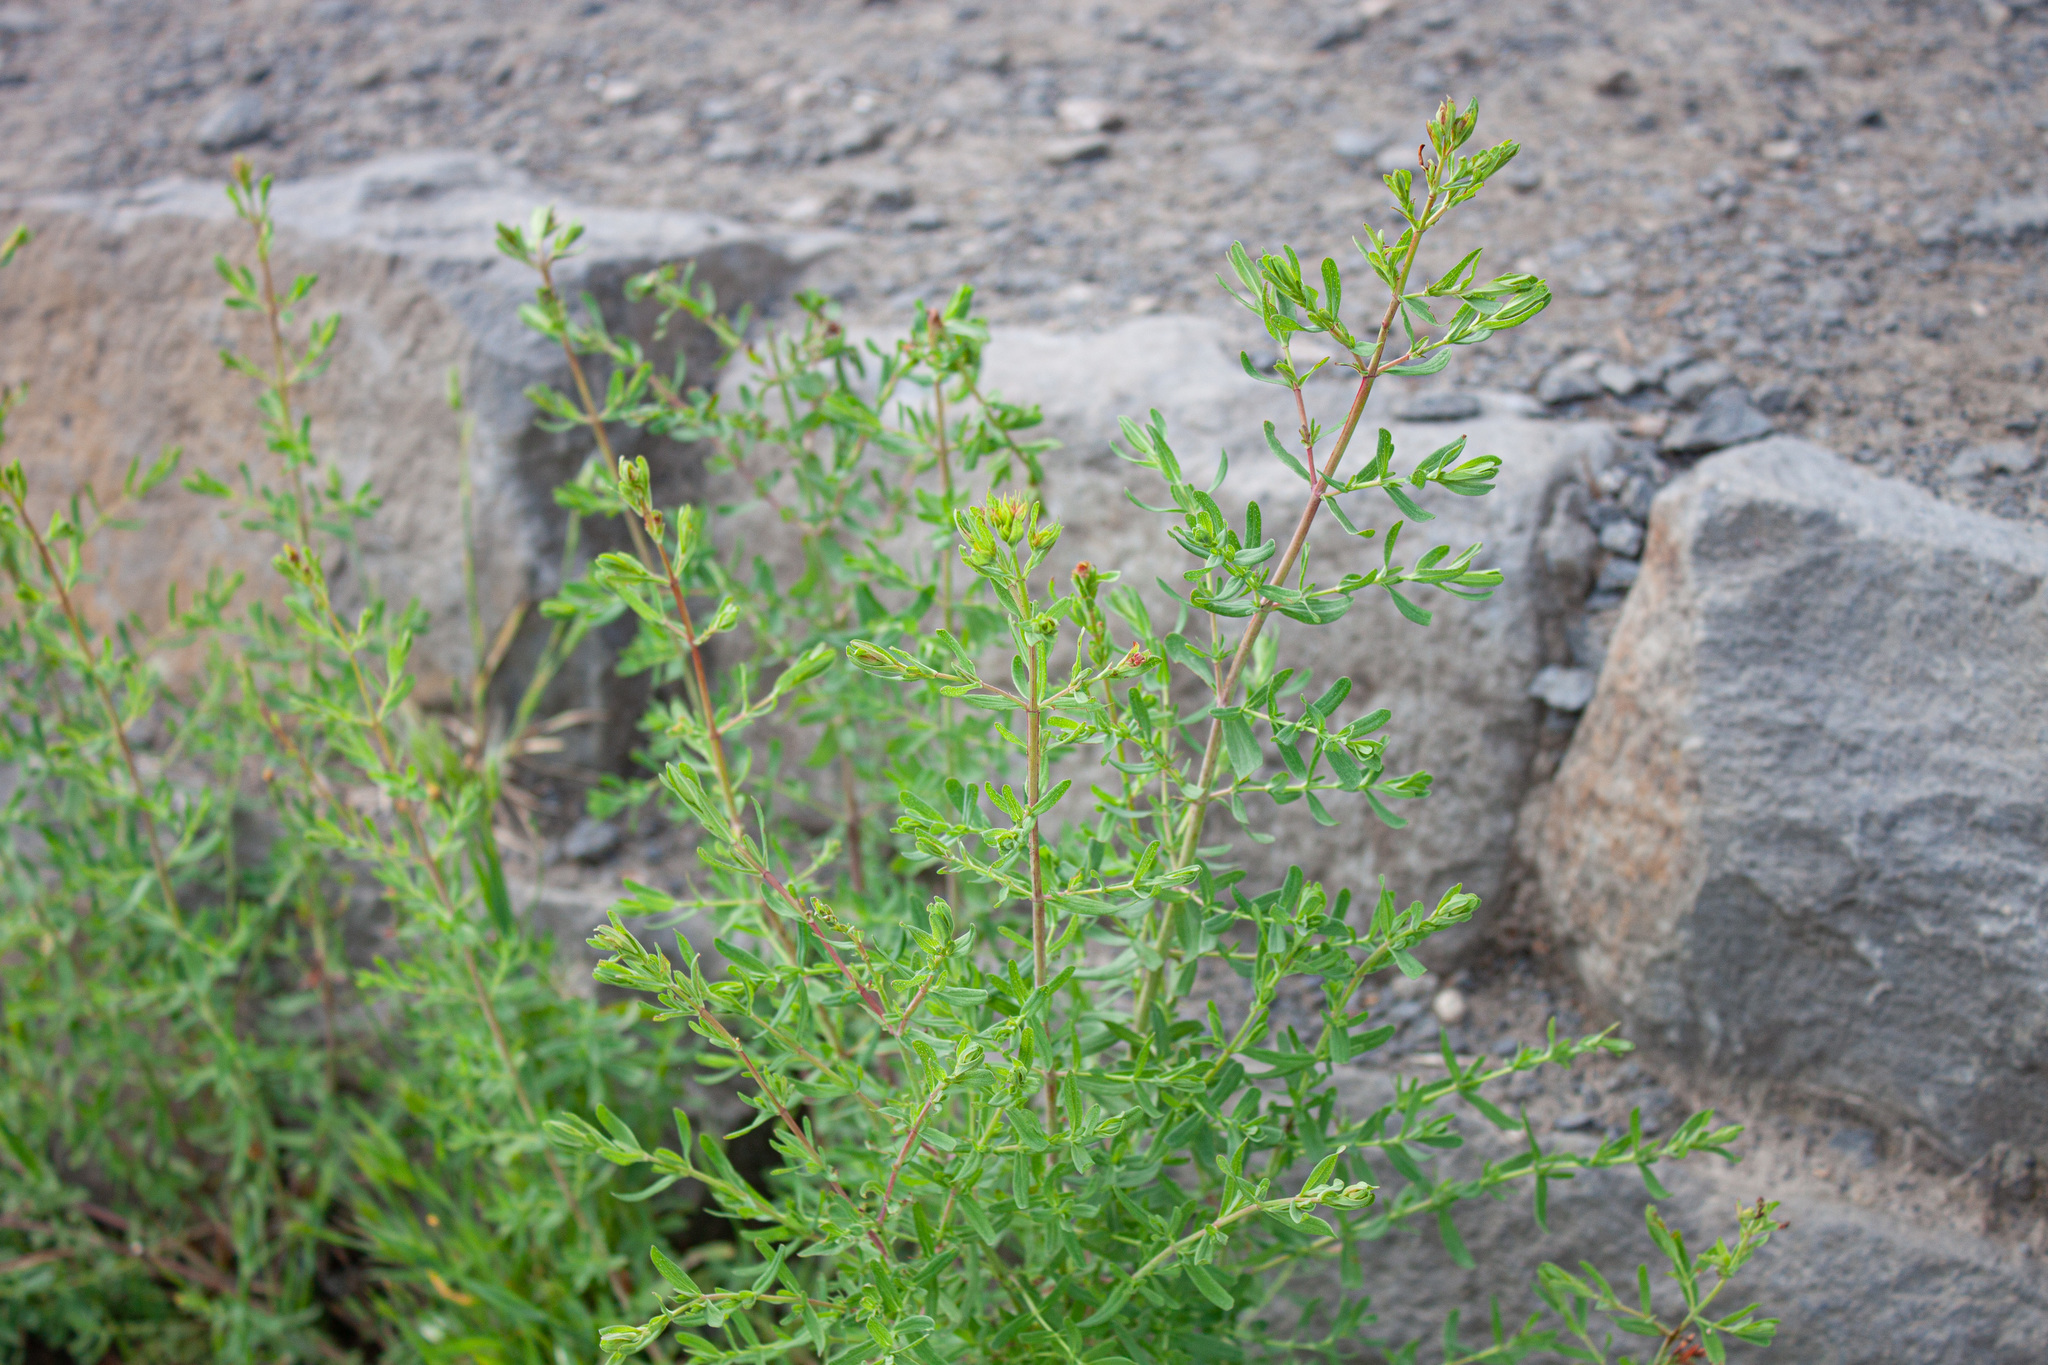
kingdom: Plantae
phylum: Tracheophyta
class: Magnoliopsida
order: Malpighiales
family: Hypericaceae
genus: Hypericum
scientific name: Hypericum perforatum
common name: Common st. johnswort
